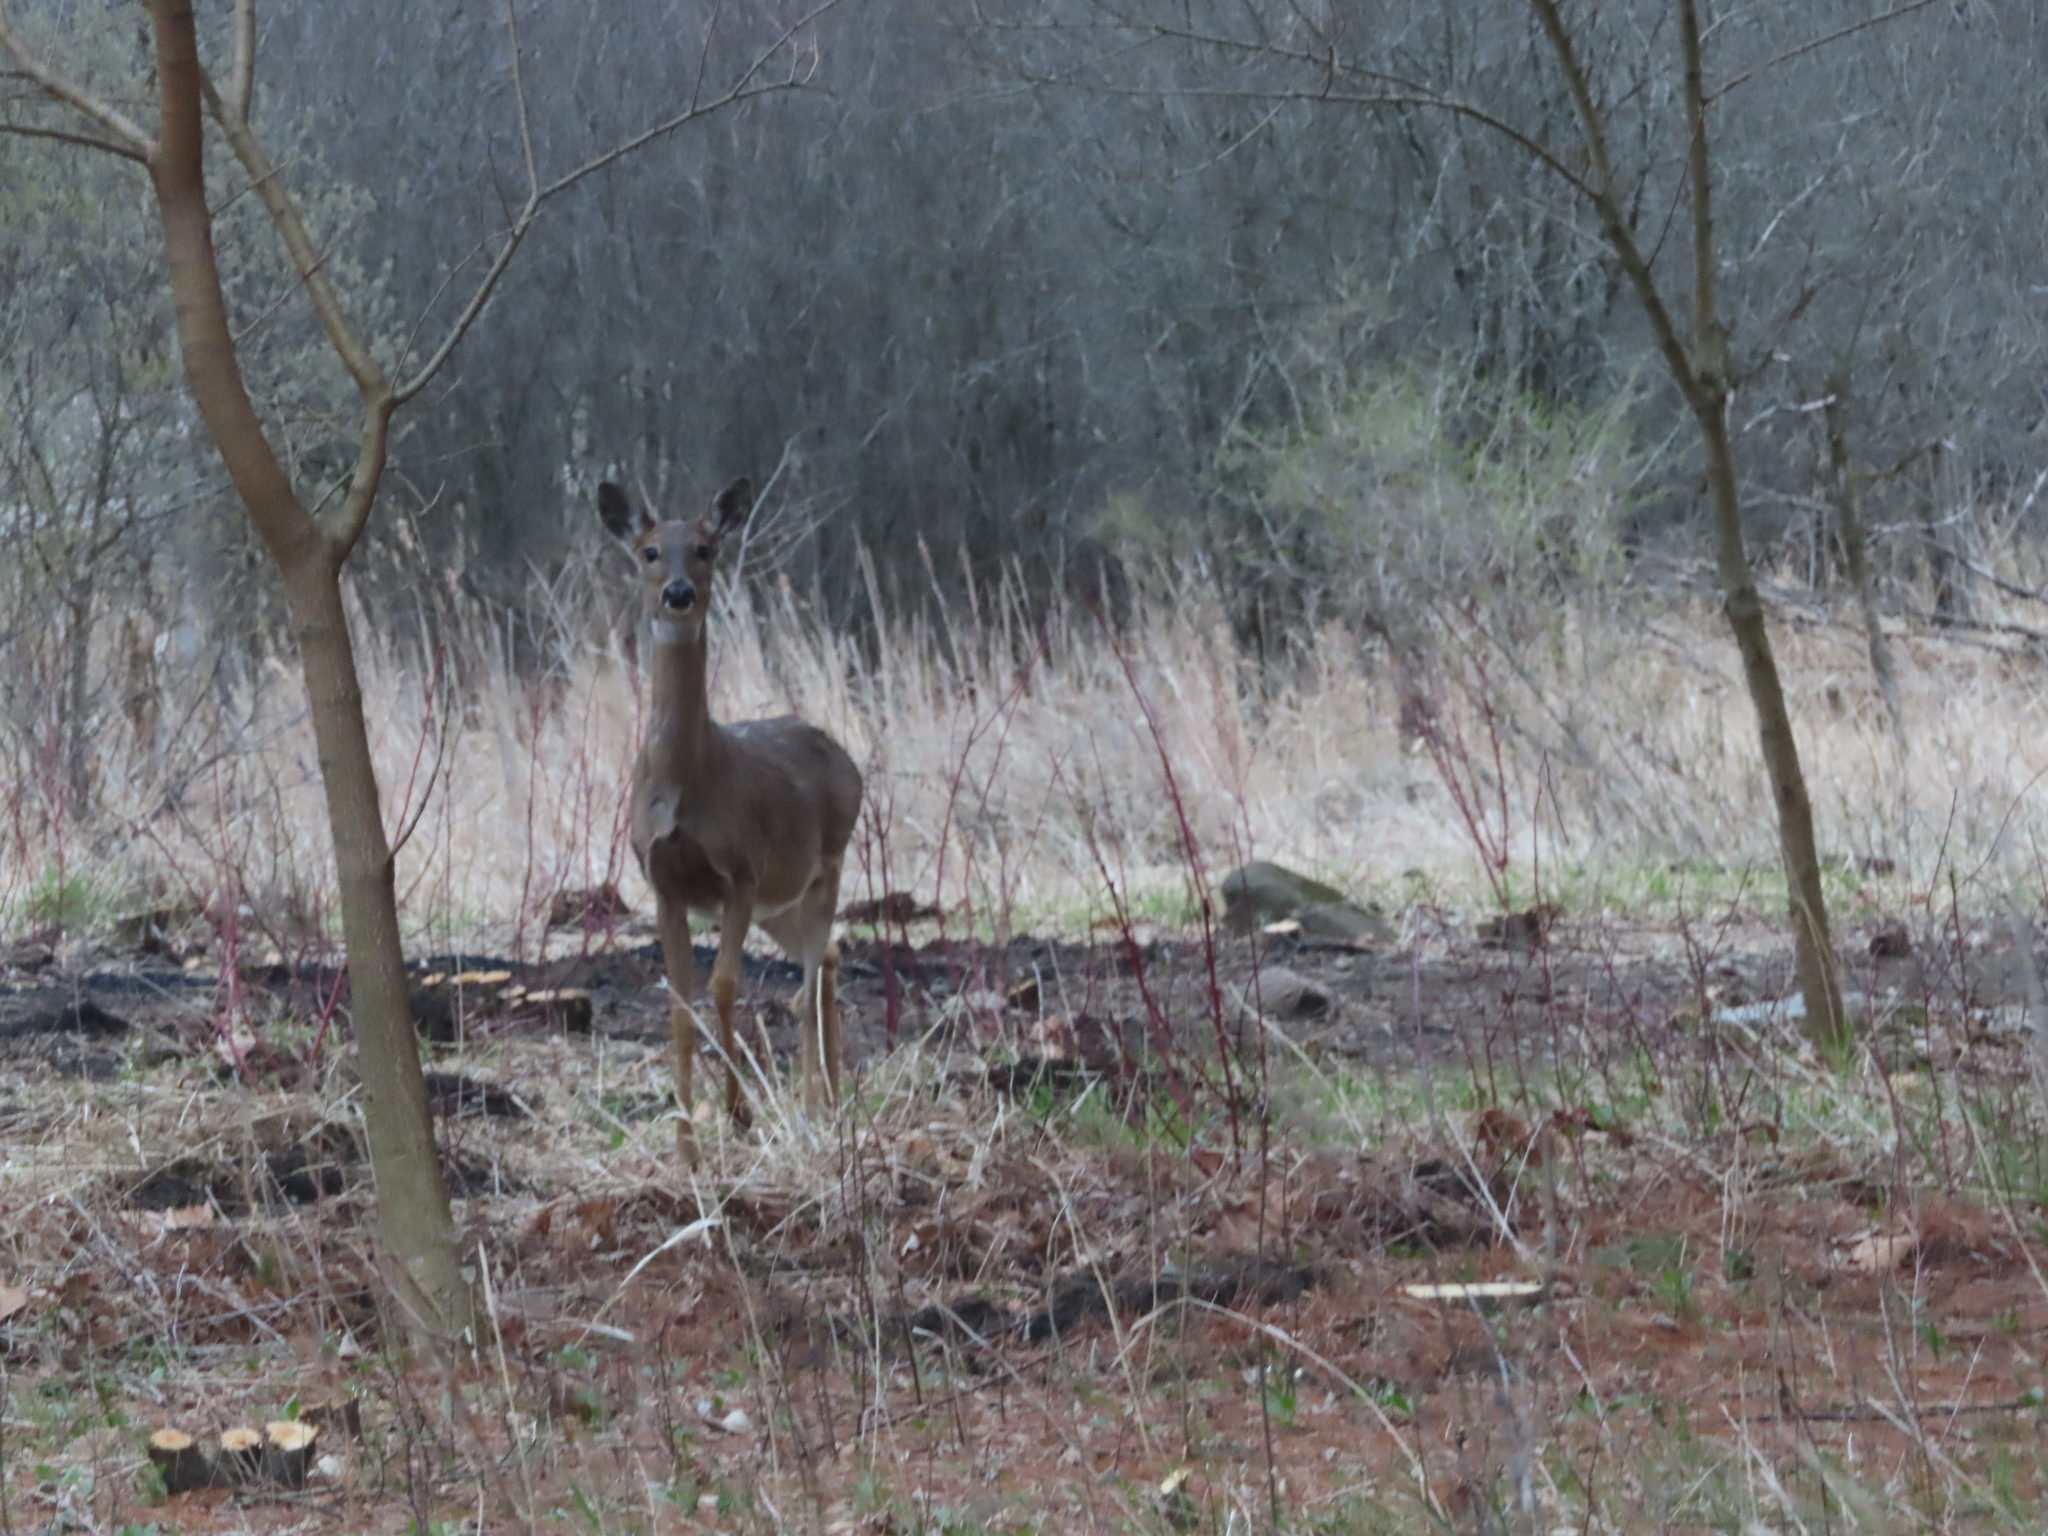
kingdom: Animalia
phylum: Chordata
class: Mammalia
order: Artiodactyla
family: Cervidae
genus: Odocoileus
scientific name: Odocoileus virginianus
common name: White-tailed deer
